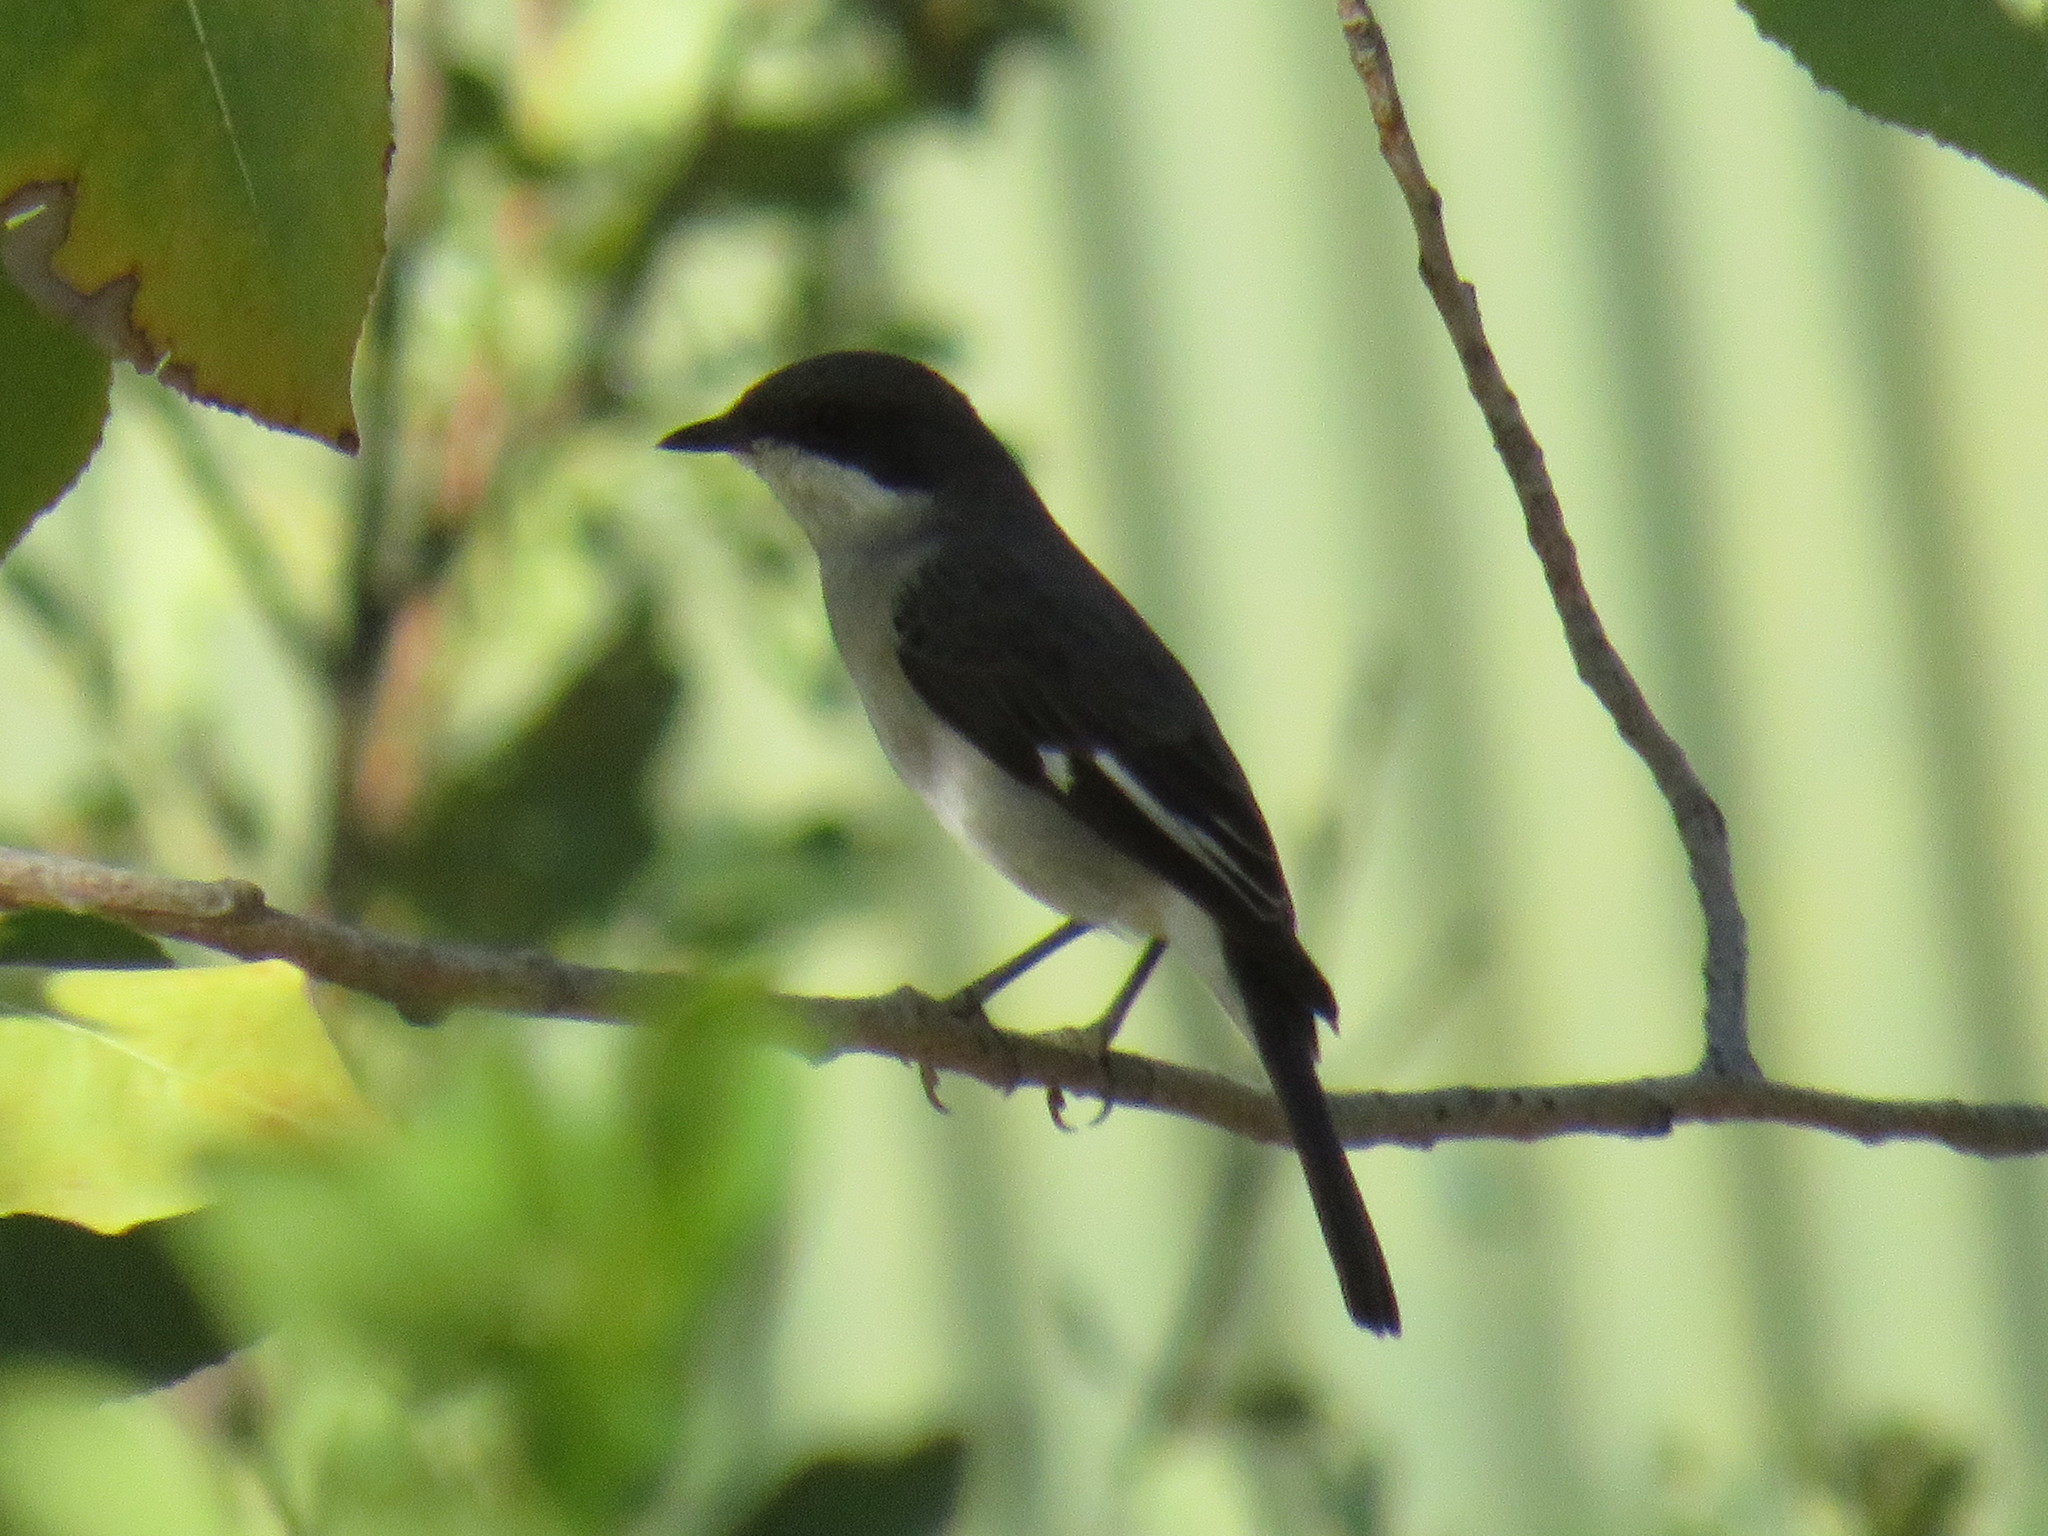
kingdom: Animalia
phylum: Chordata
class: Aves
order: Passeriformes
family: Muscicapidae
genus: Sigelus
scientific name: Sigelus silens
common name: Fiscal flycatcher
